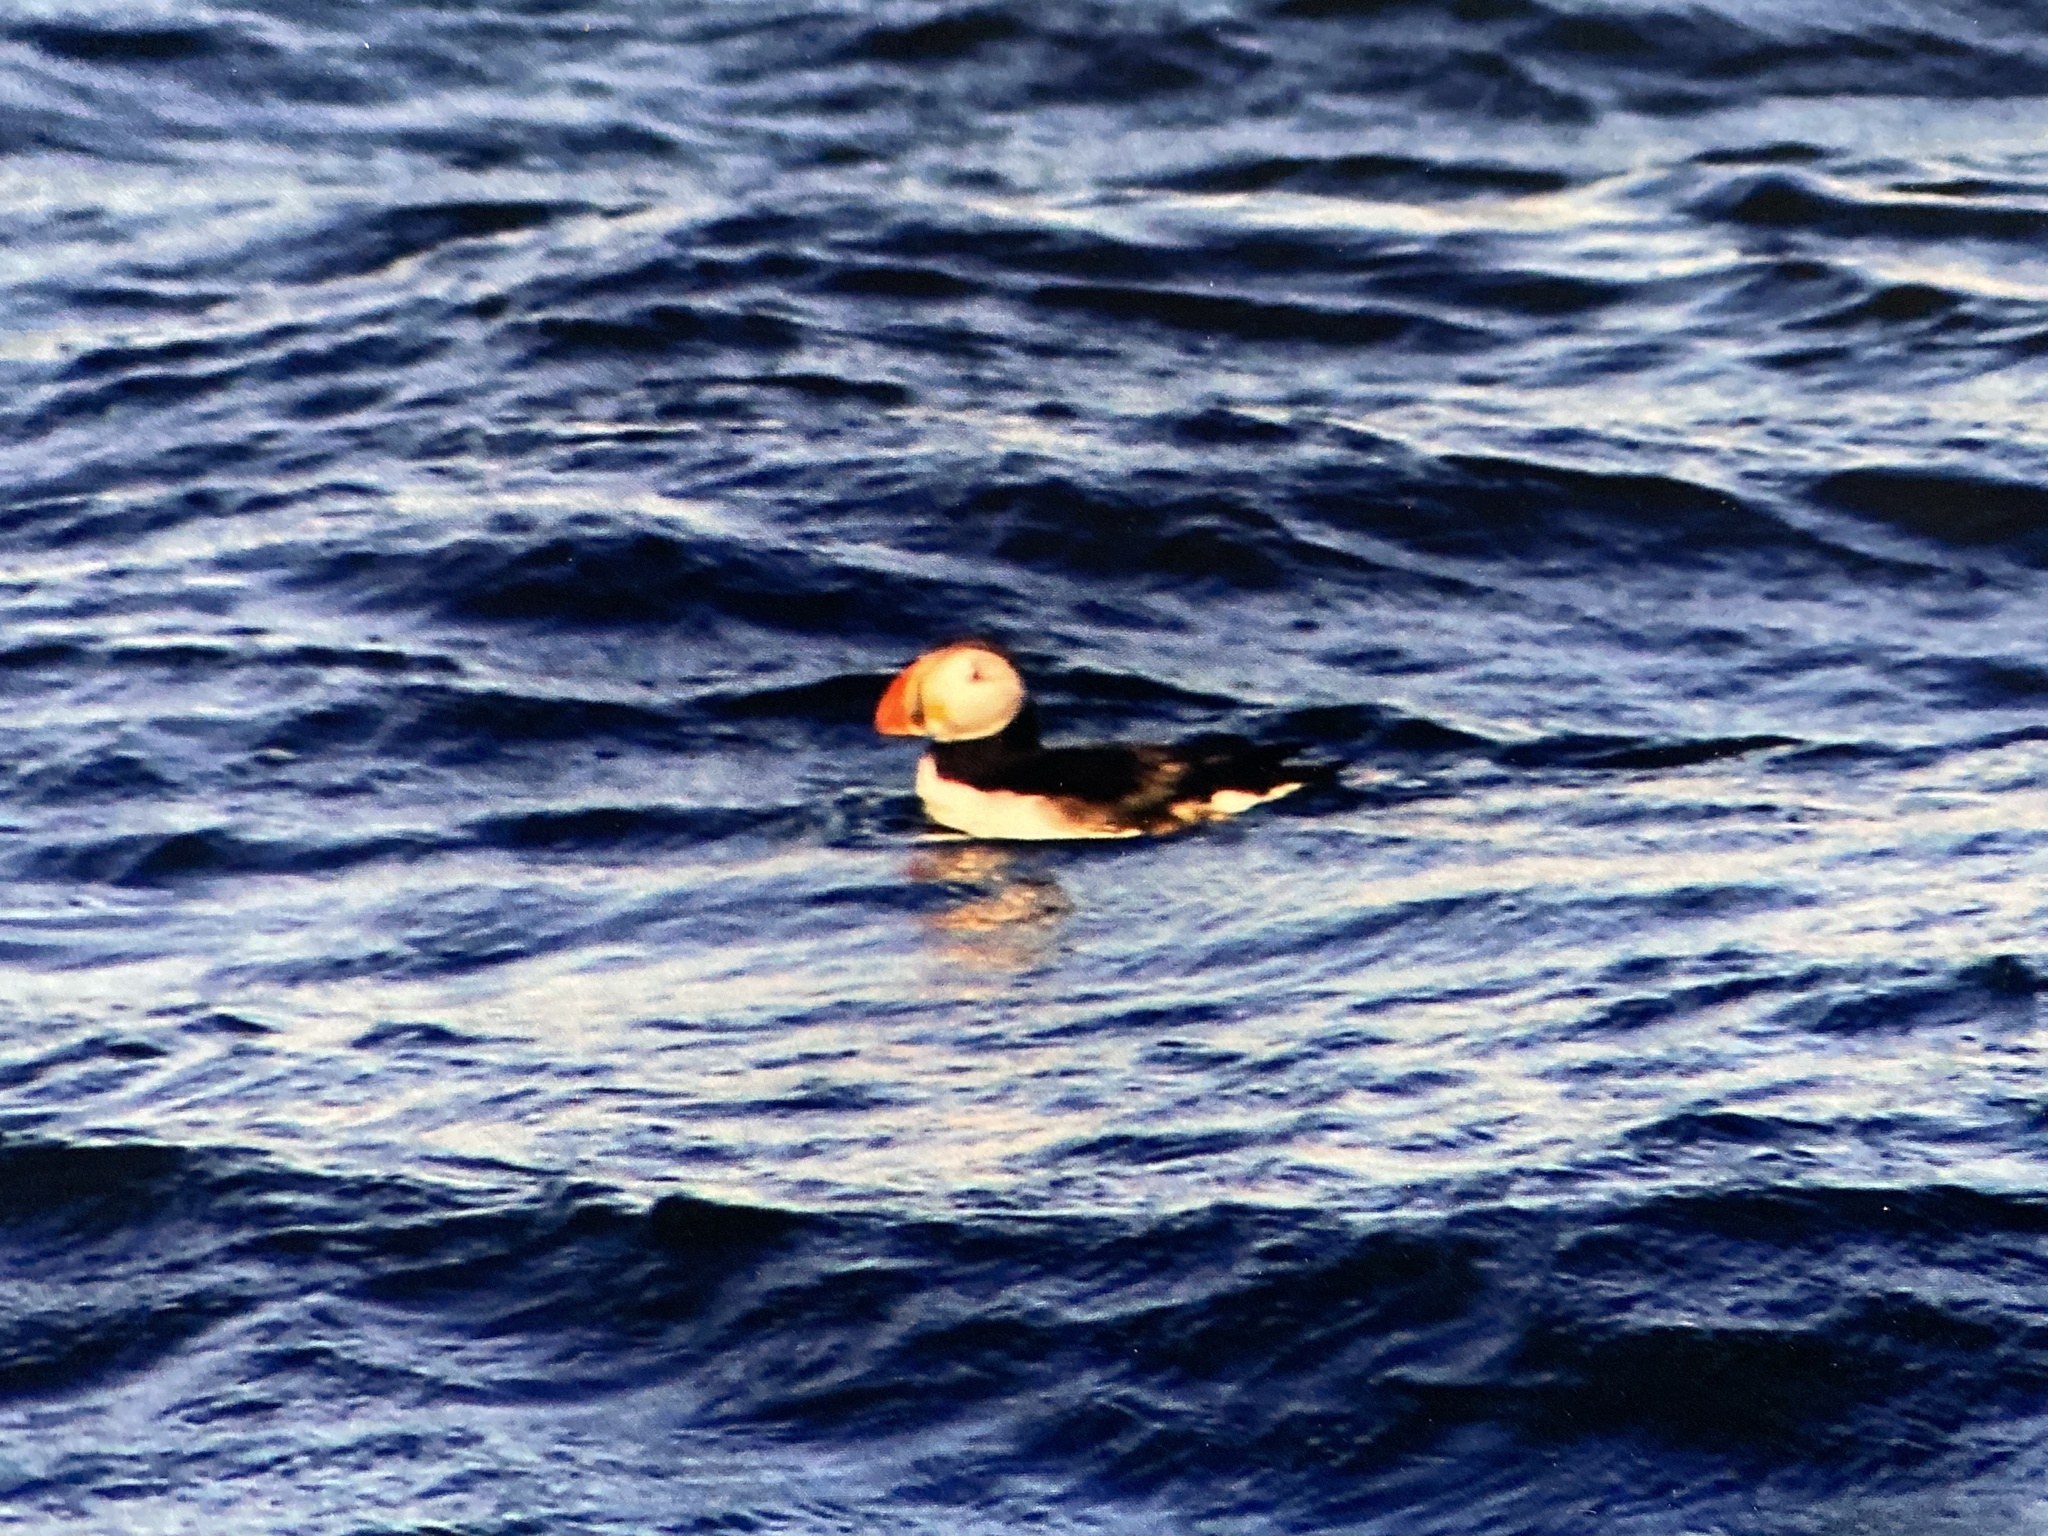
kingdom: Animalia
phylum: Chordata
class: Aves
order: Charadriiformes
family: Alcidae
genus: Fratercula
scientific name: Fratercula arctica
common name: Atlantic puffin
